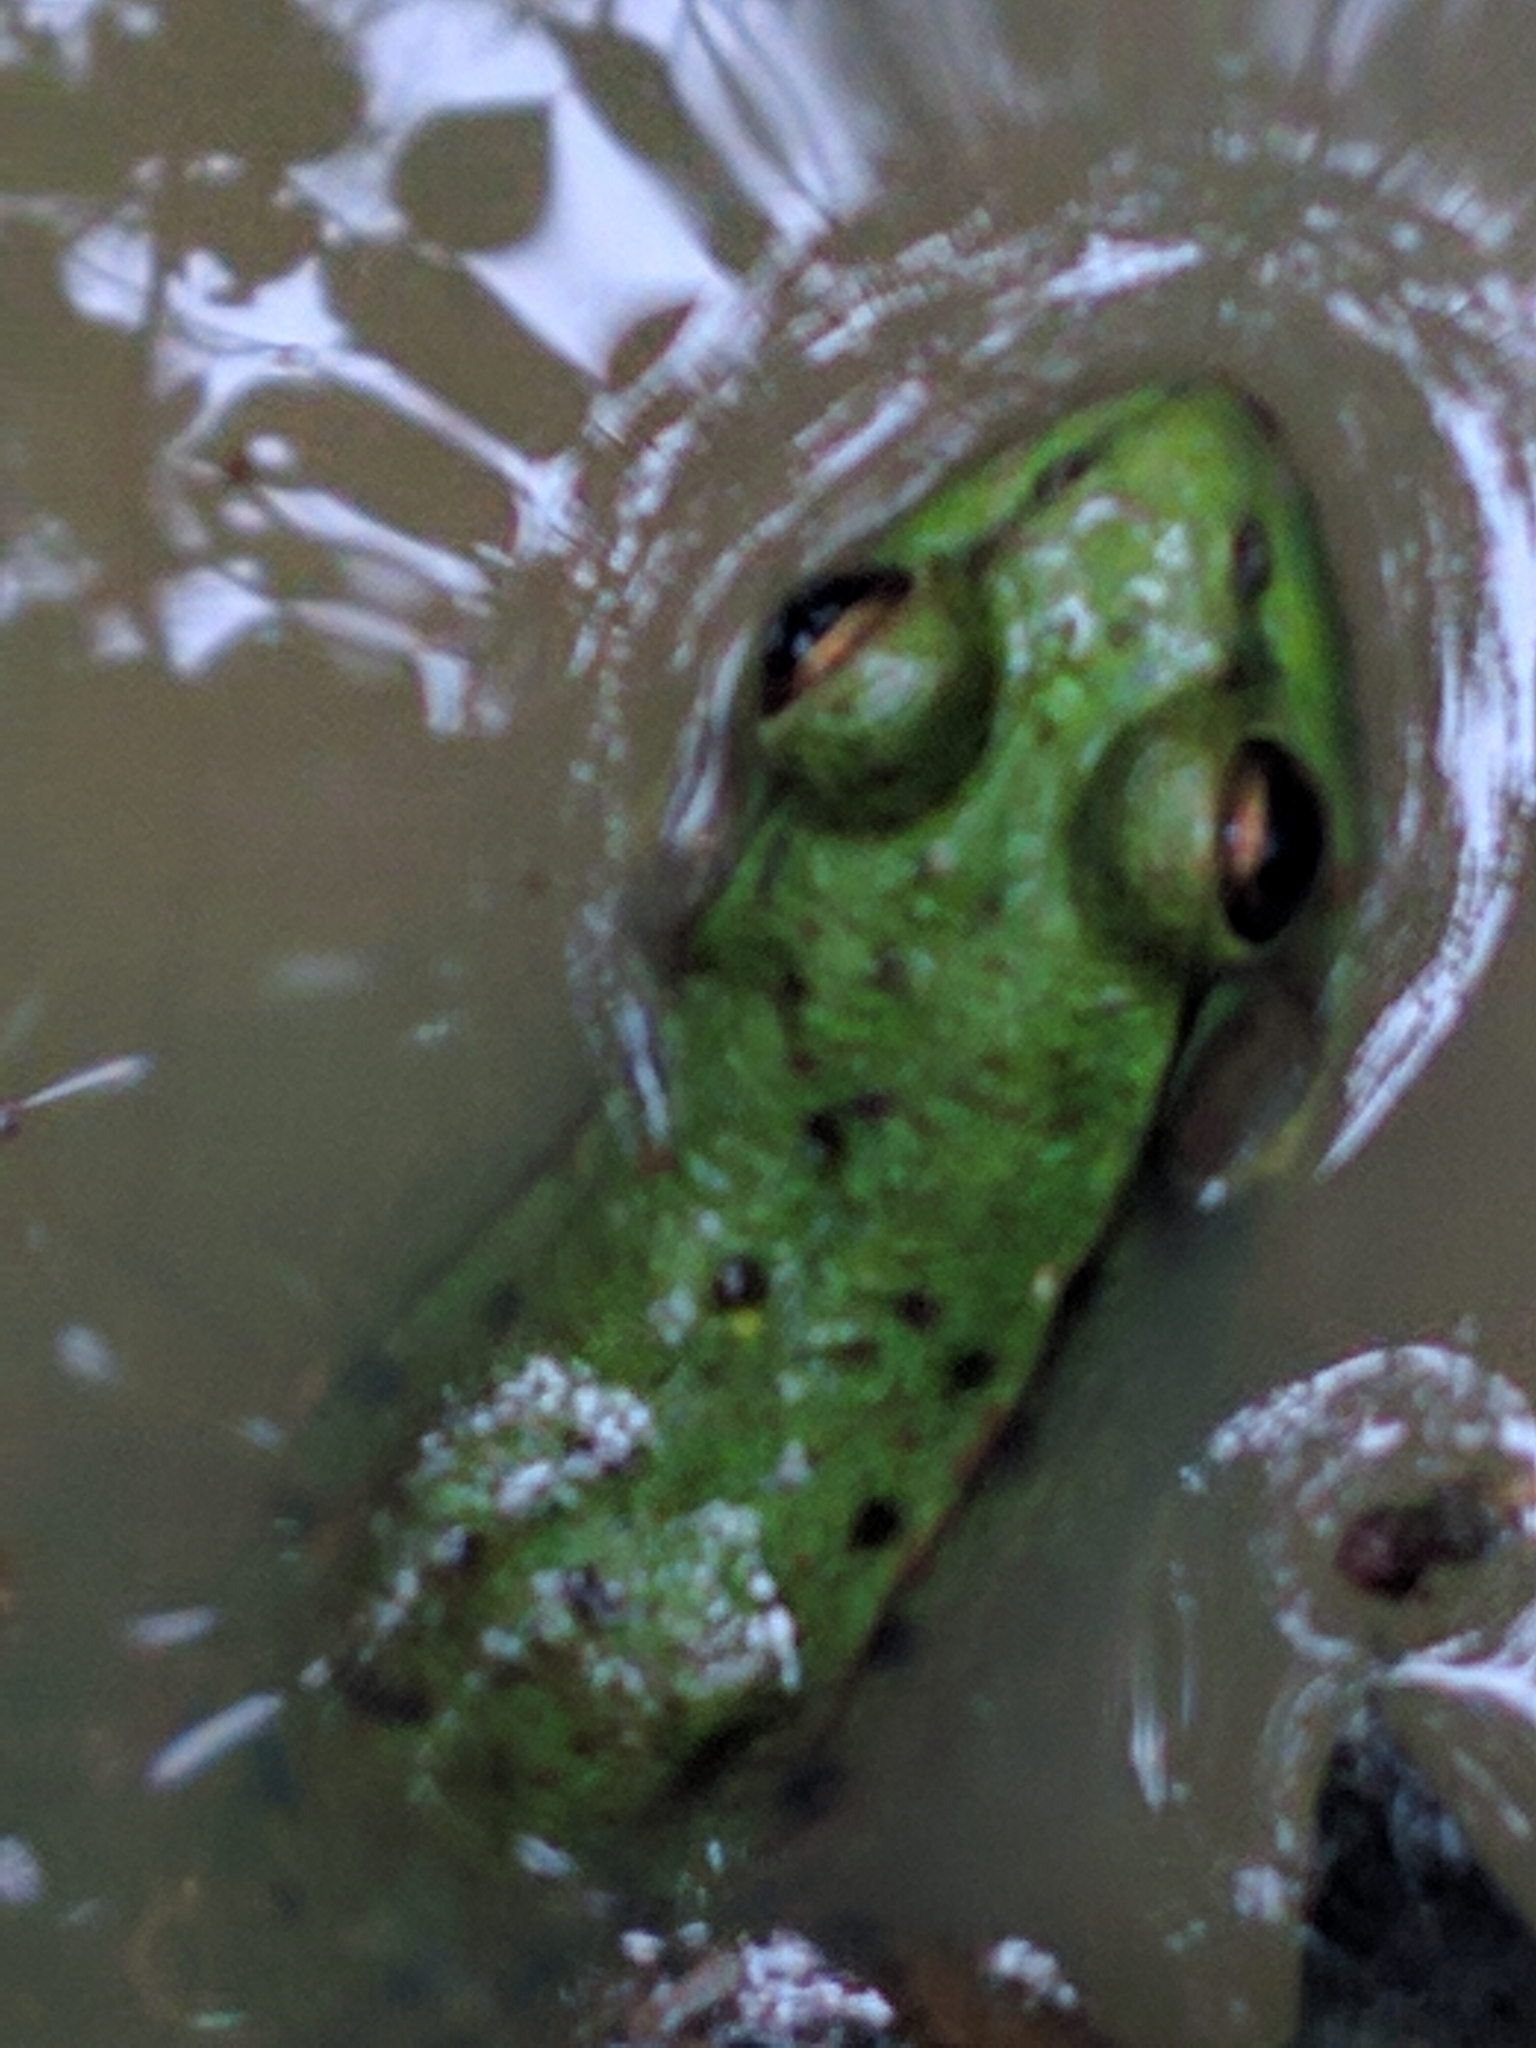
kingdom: Animalia
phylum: Chordata
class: Amphibia
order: Anura
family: Ranidae
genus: Lithobates
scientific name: Lithobates clamitans
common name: Green frog
